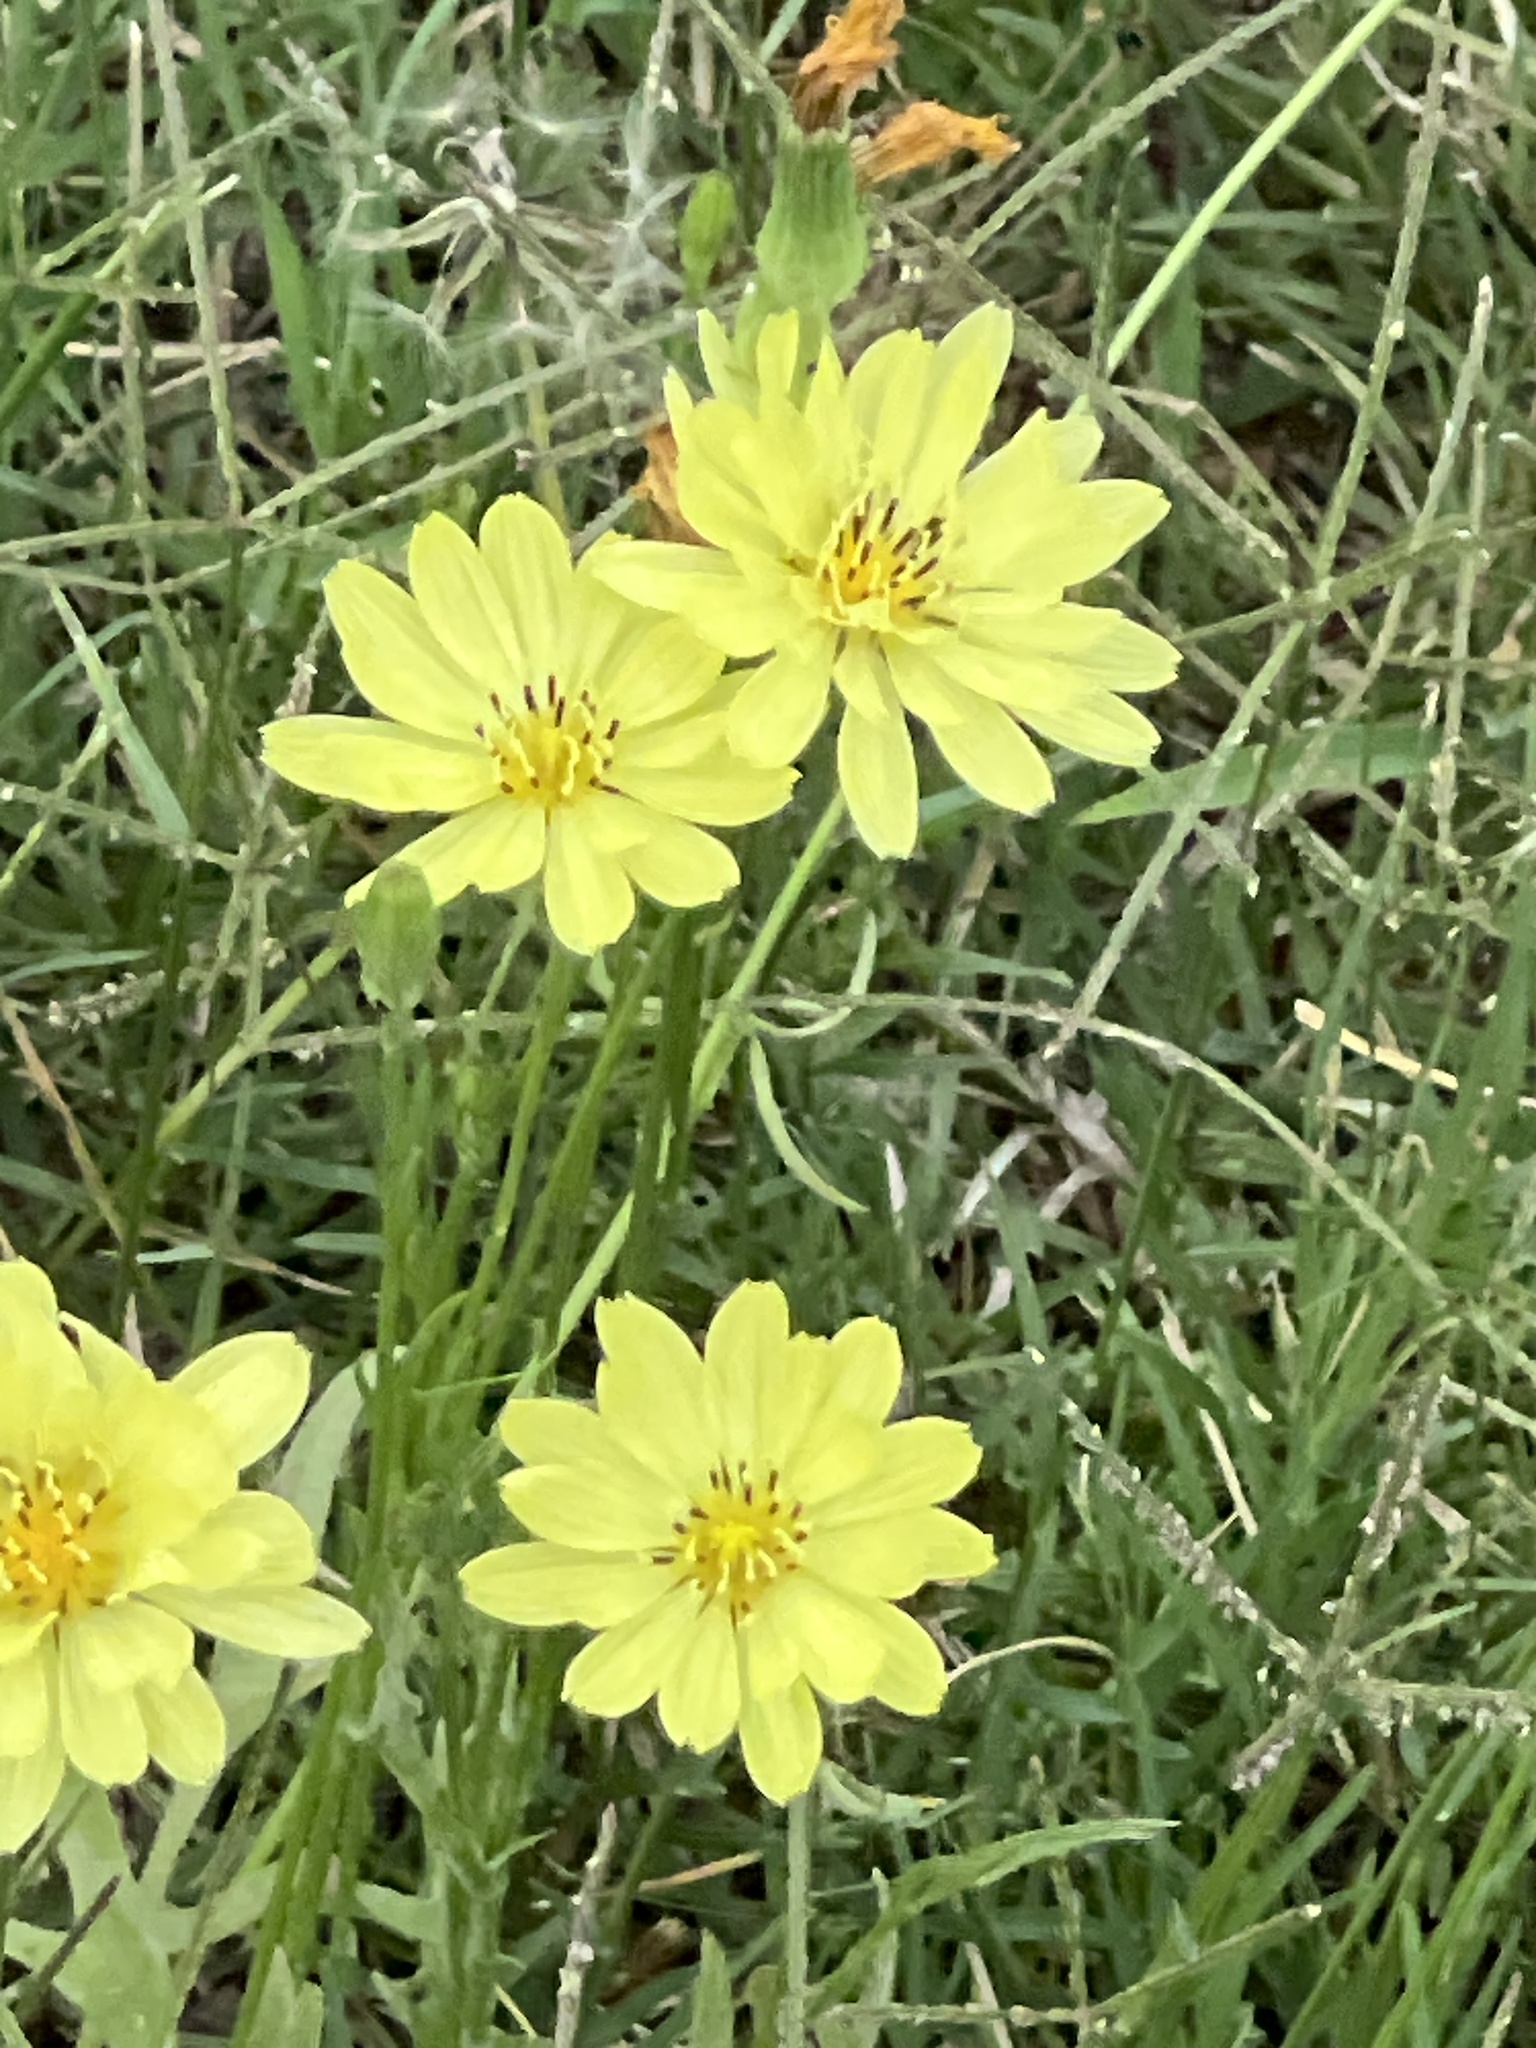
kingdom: Plantae
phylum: Tracheophyta
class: Magnoliopsida
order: Asterales
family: Asteraceae
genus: Pyrrhopappus
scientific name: Pyrrhopappus pauciflorus
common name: Texas false dandelion
